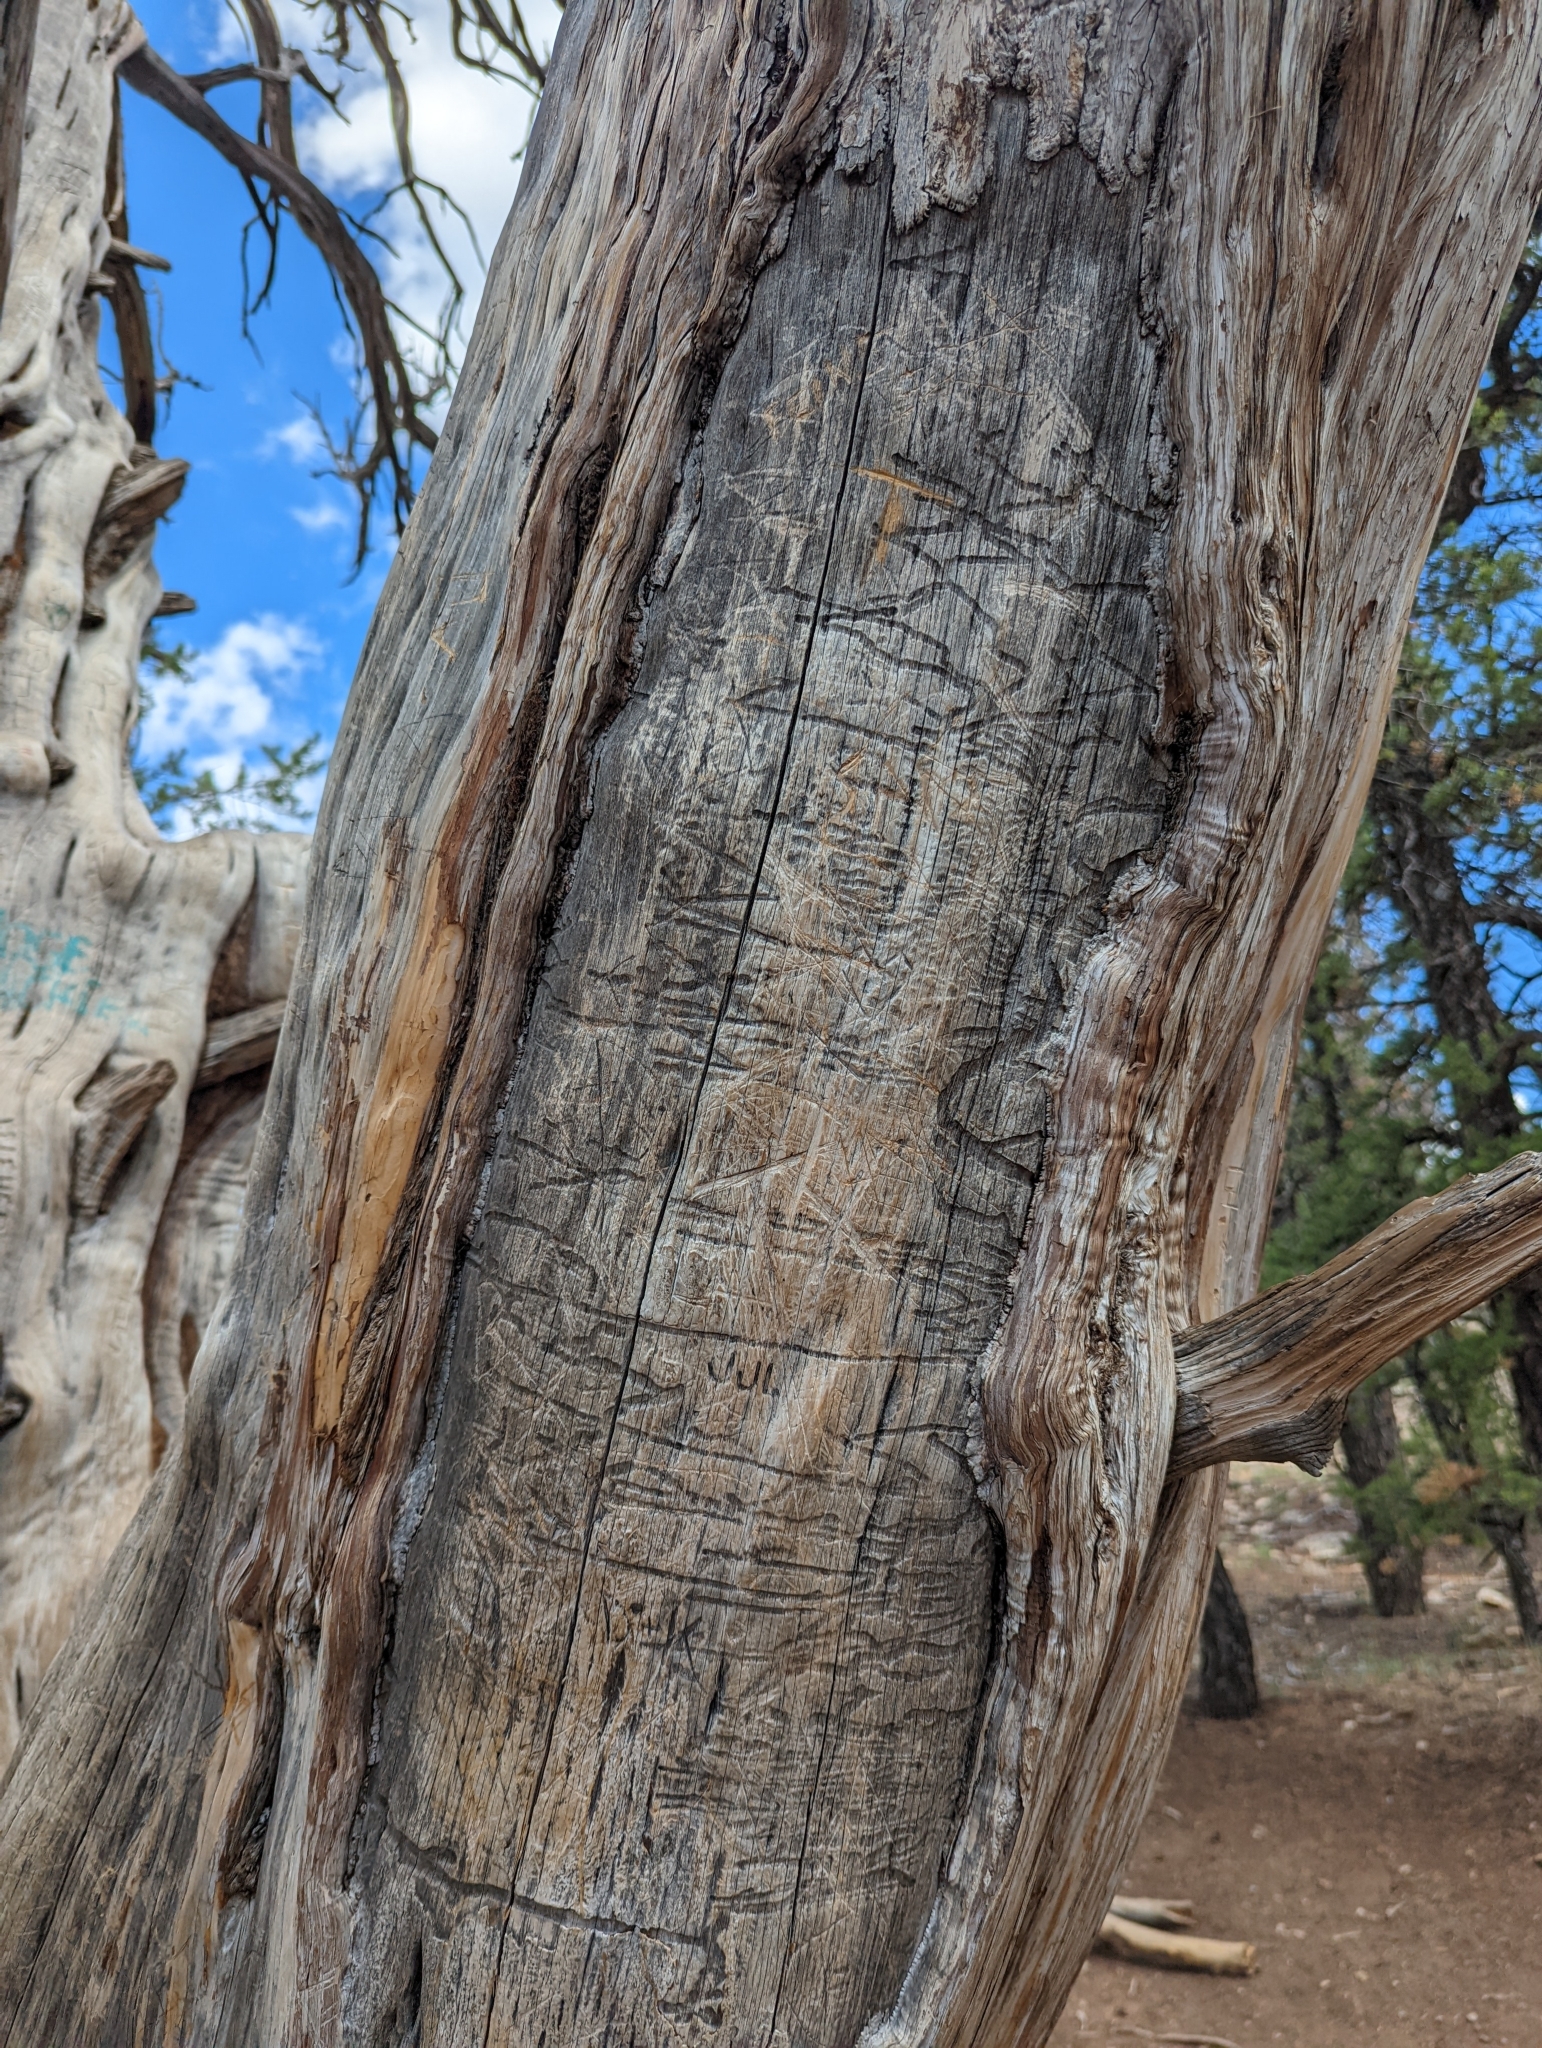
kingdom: Plantae
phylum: Tracheophyta
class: Pinopsida
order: Pinales
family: Cupressaceae
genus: Juniperus
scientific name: Juniperus osteosperma
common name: Utah juniper
